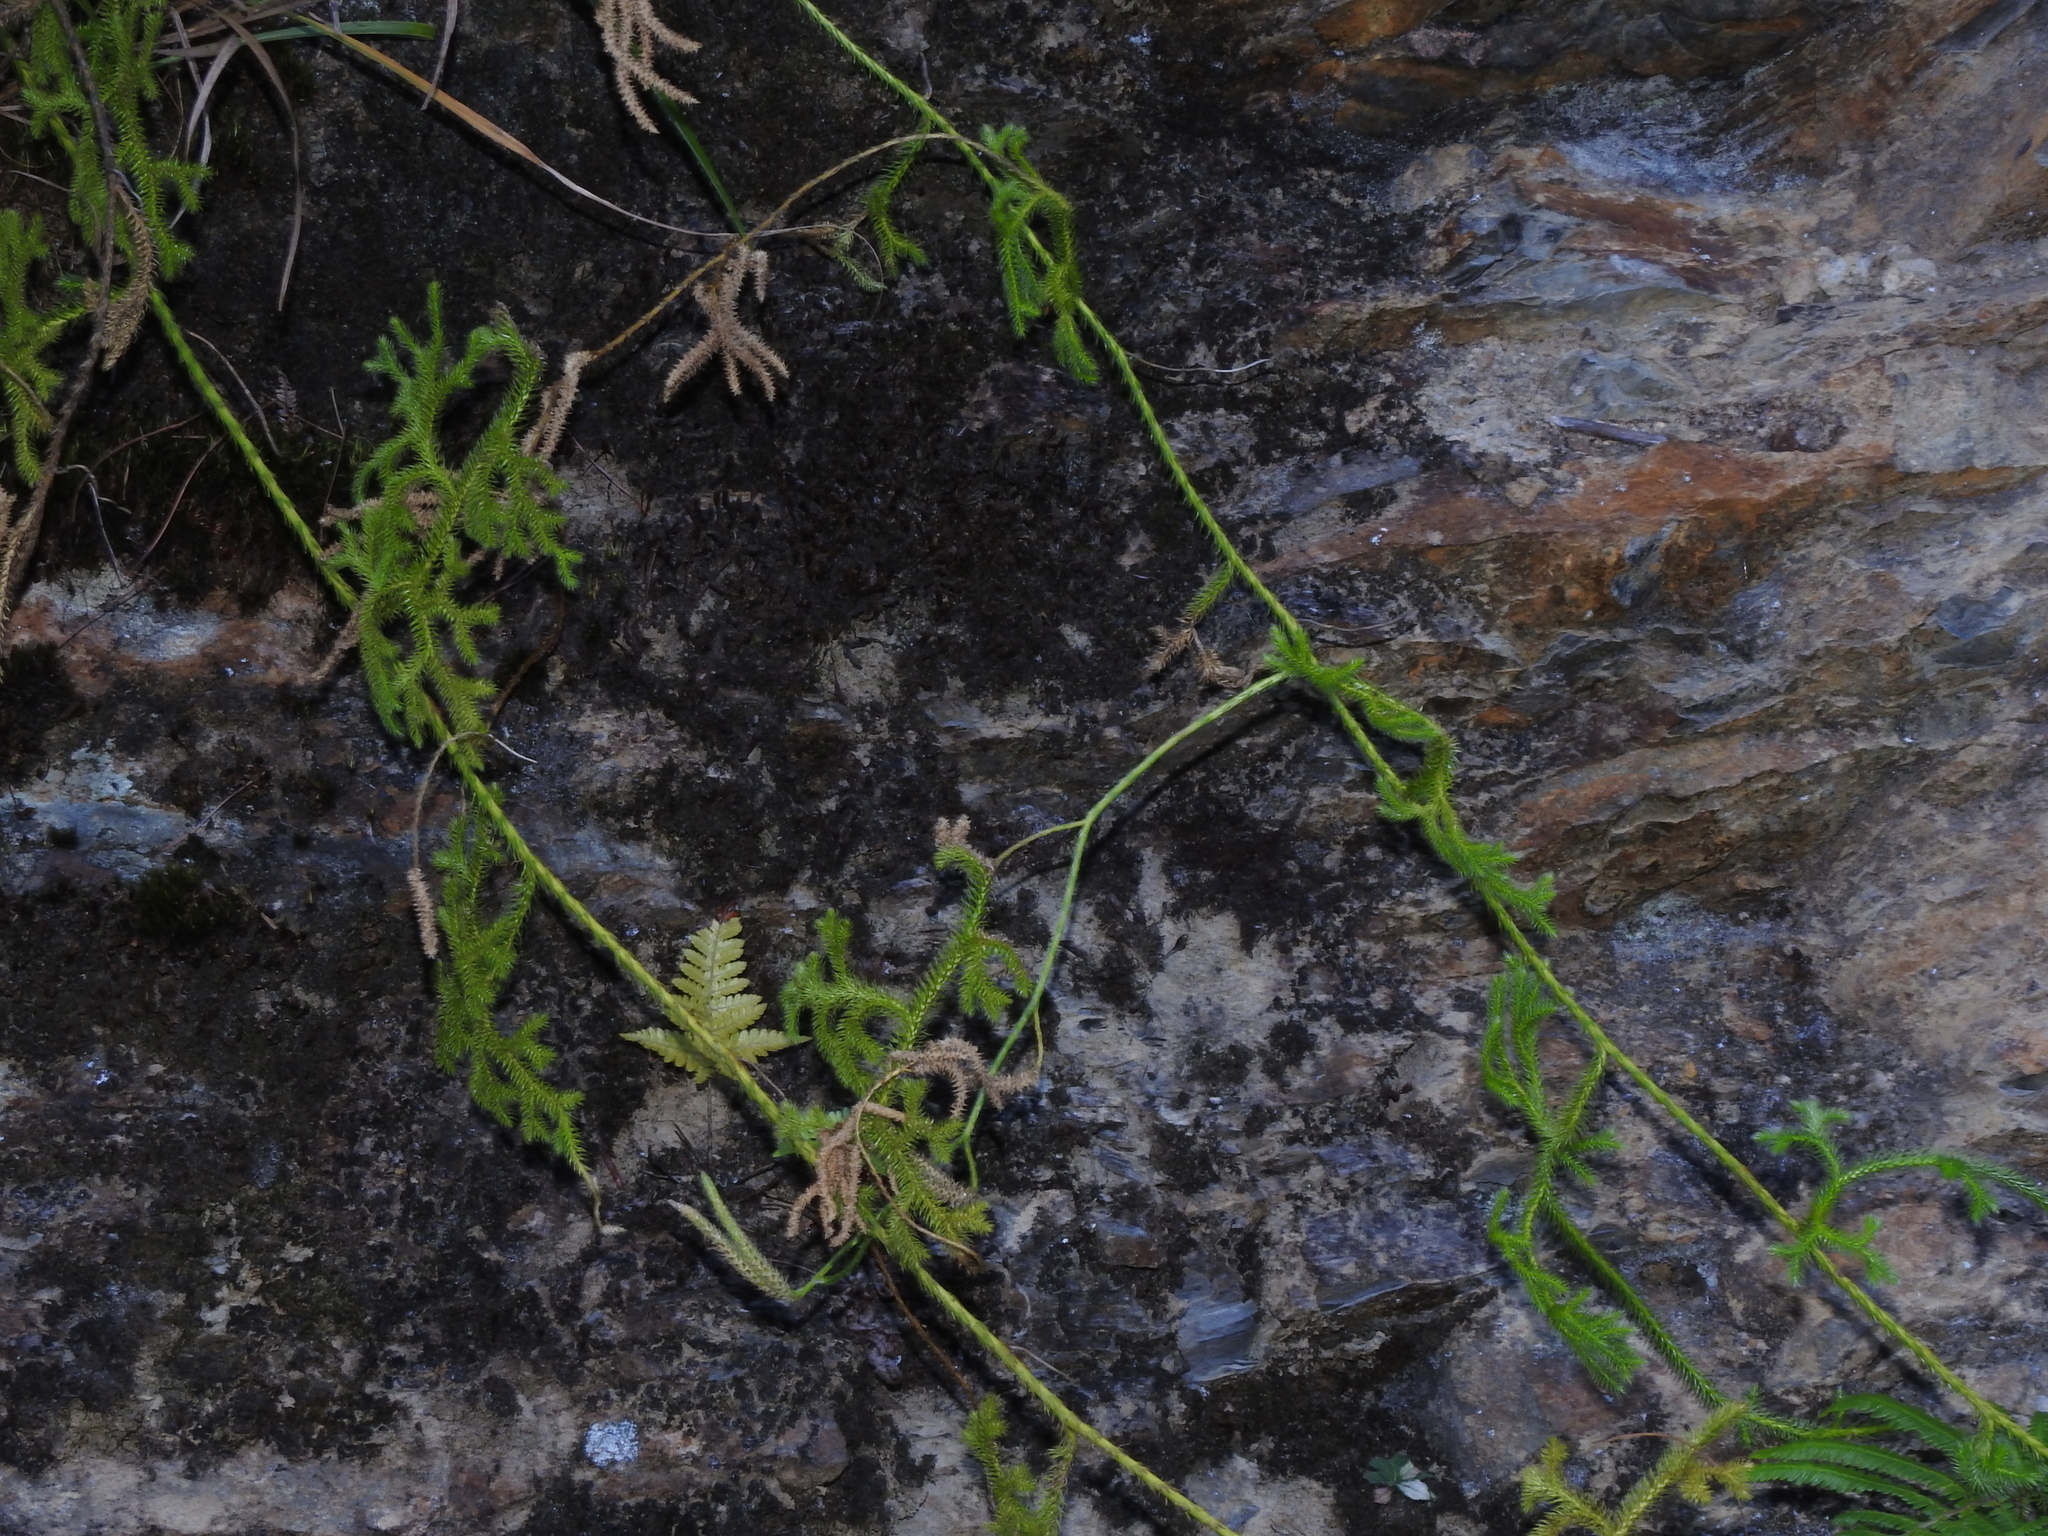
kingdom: Plantae
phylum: Tracheophyta
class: Lycopodiopsida
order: Lycopodiales
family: Lycopodiaceae
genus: Lycopodium
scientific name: Lycopodium clavatum
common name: Stag's-horn clubmoss
